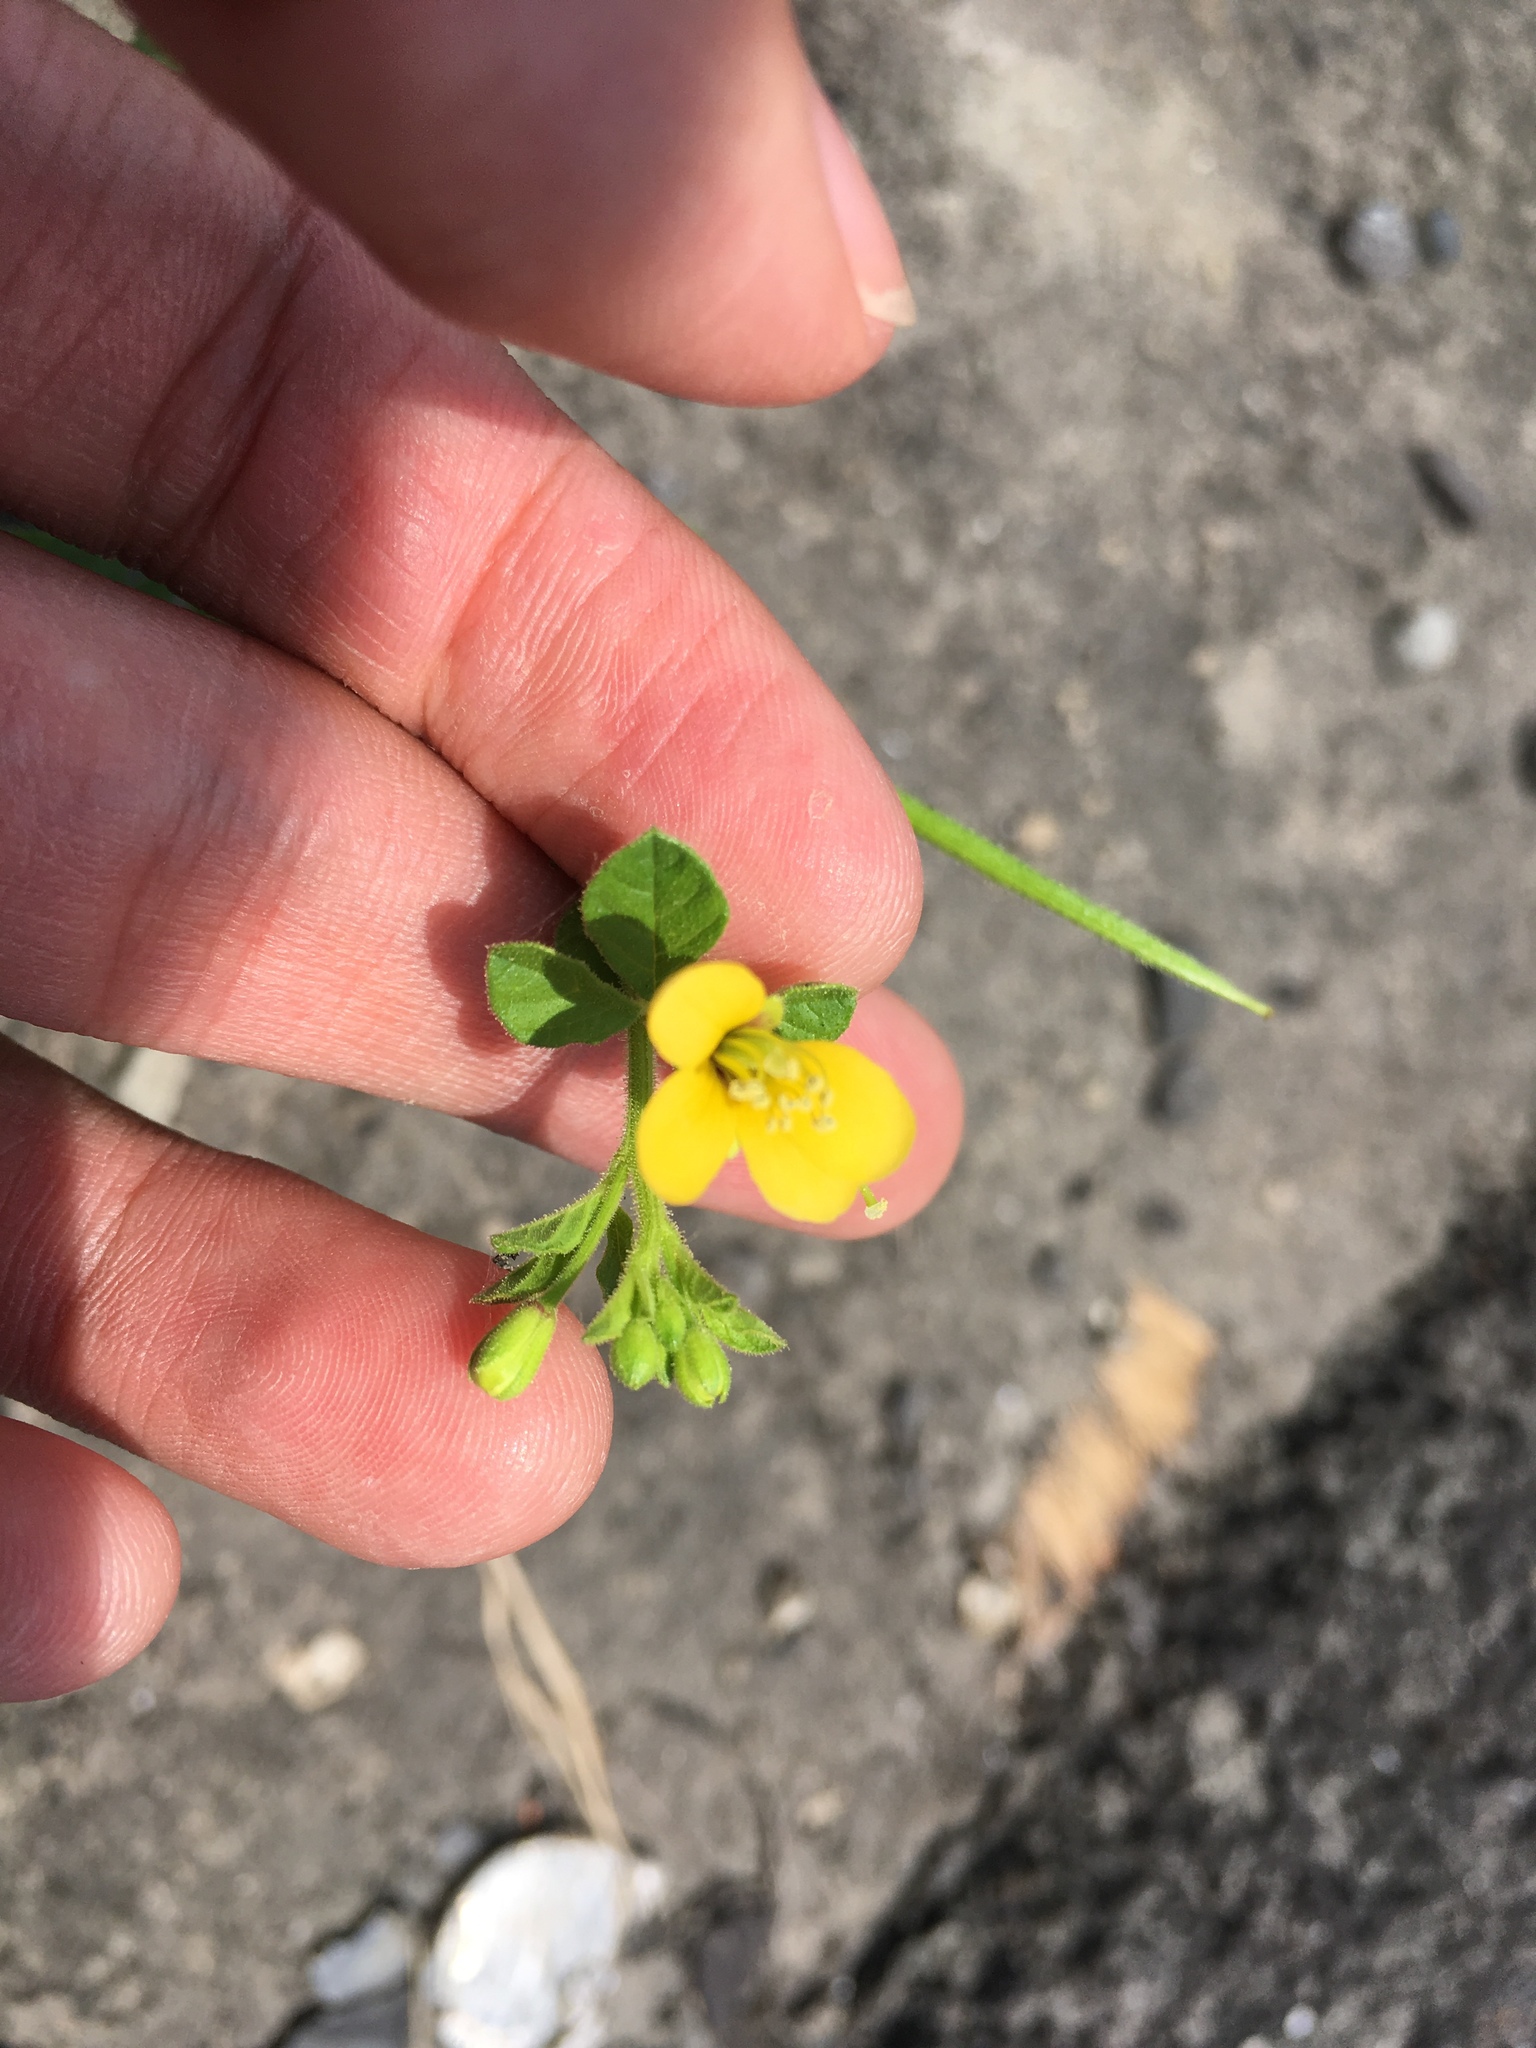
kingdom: Plantae
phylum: Tracheophyta
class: Magnoliopsida
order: Brassicales
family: Cleomaceae
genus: Arivela
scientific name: Arivela viscosa
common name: Asian spiderflower
